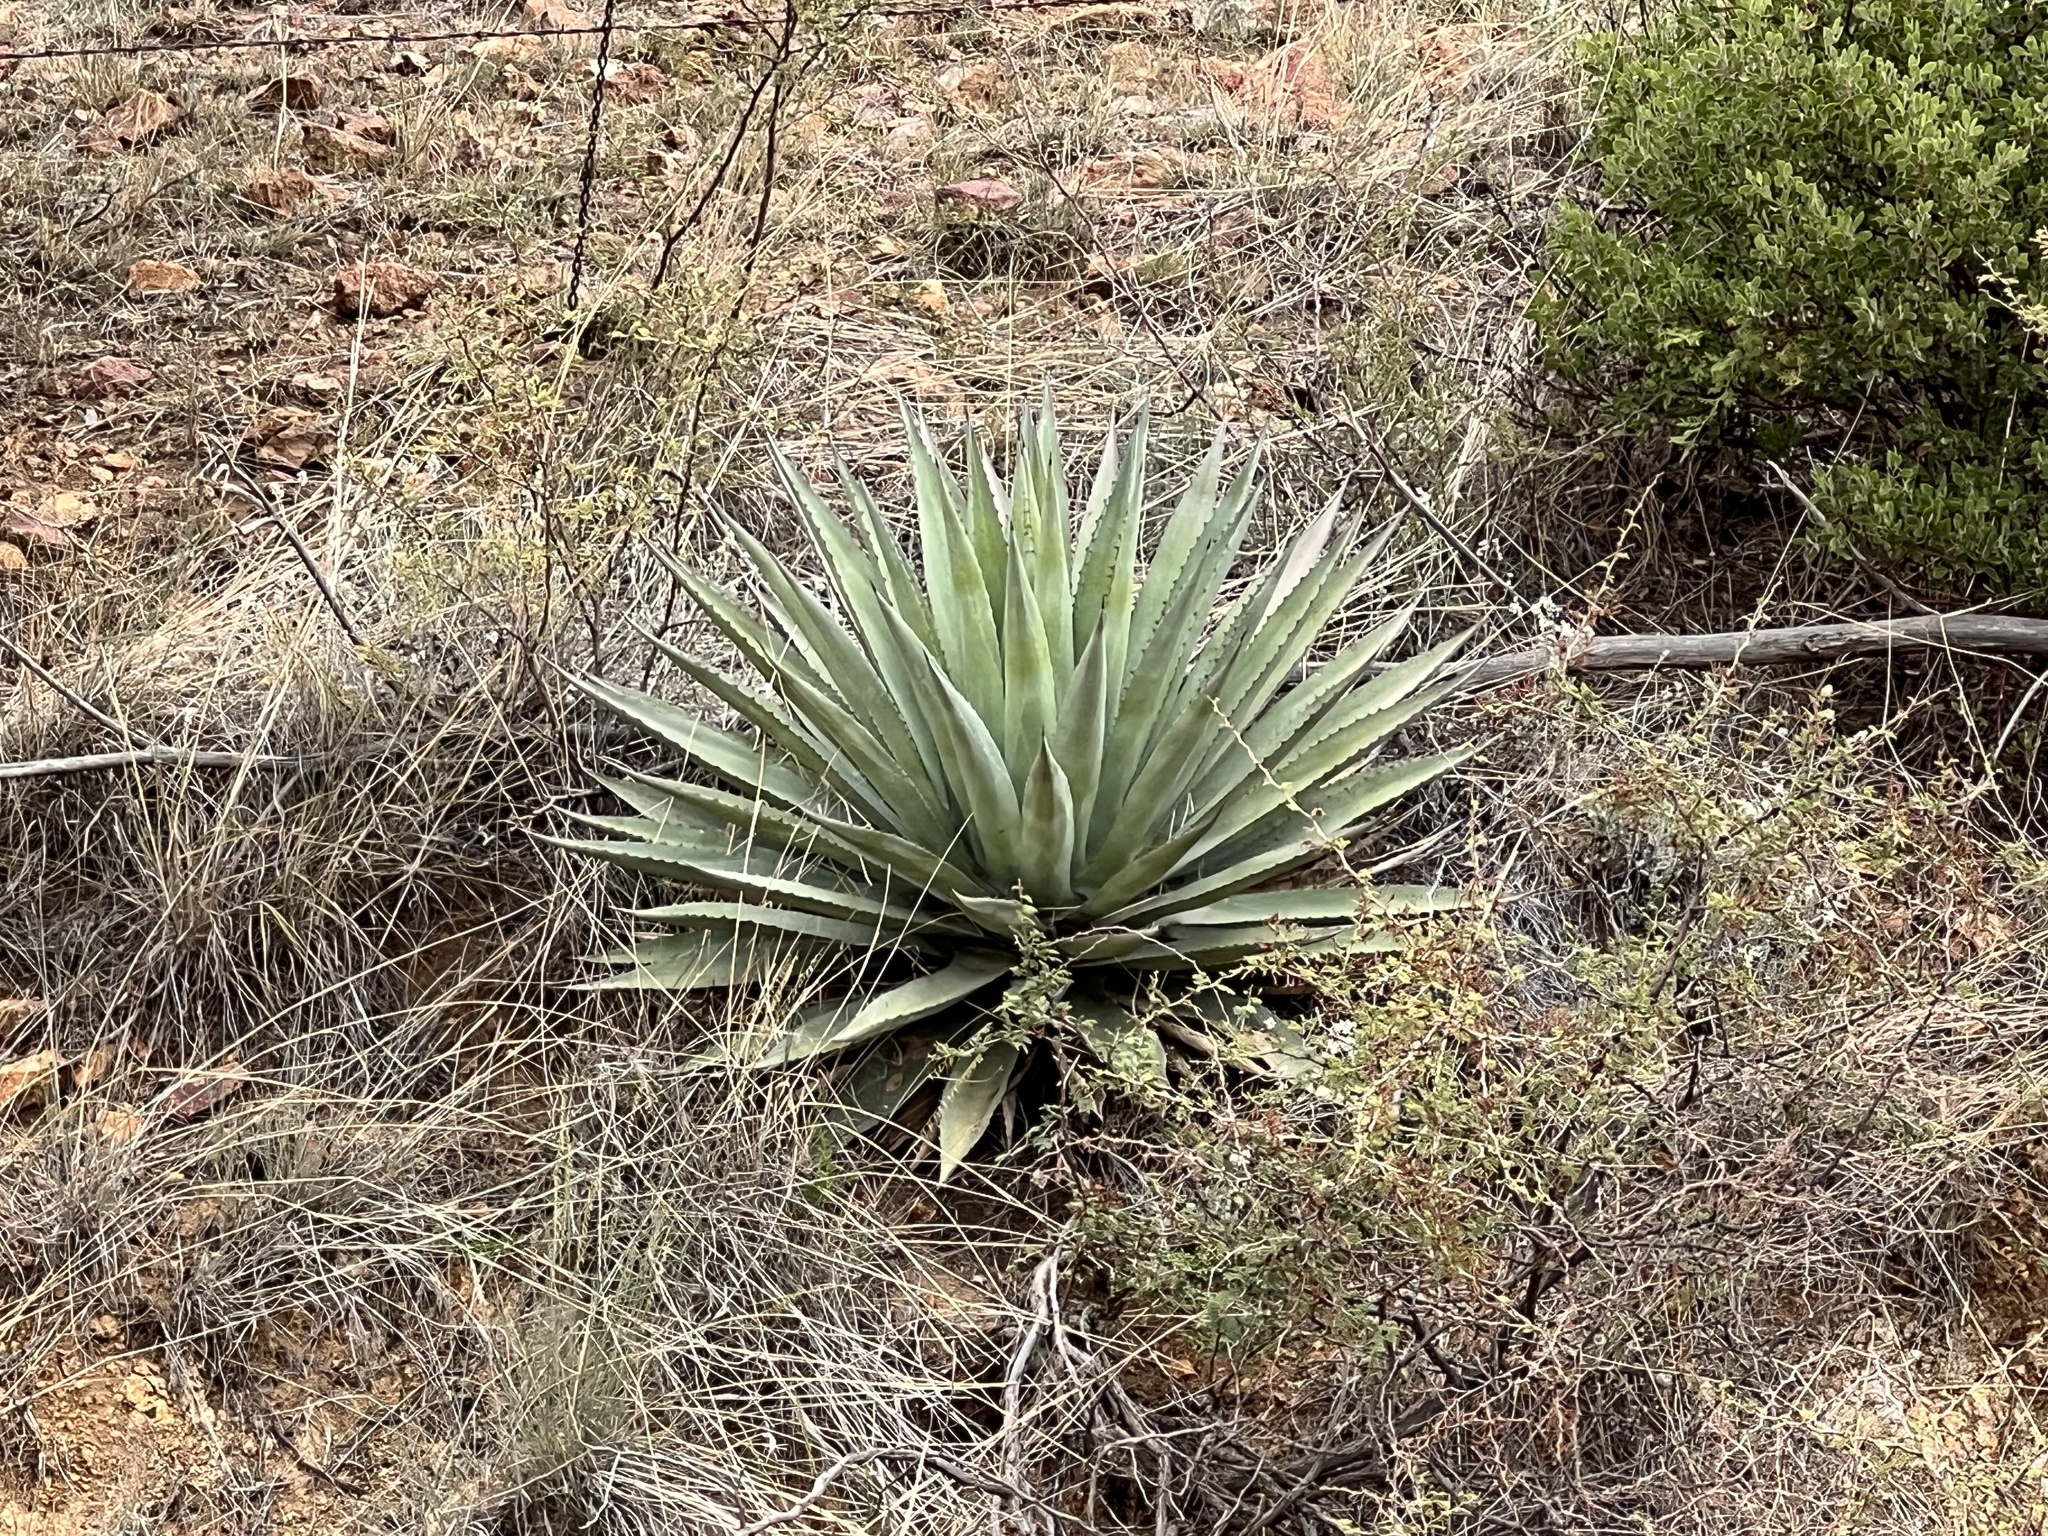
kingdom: Plantae
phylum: Tracheophyta
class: Liliopsida
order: Asparagales
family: Asparagaceae
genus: Agave
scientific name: Agave palmeri
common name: Palmer agave
